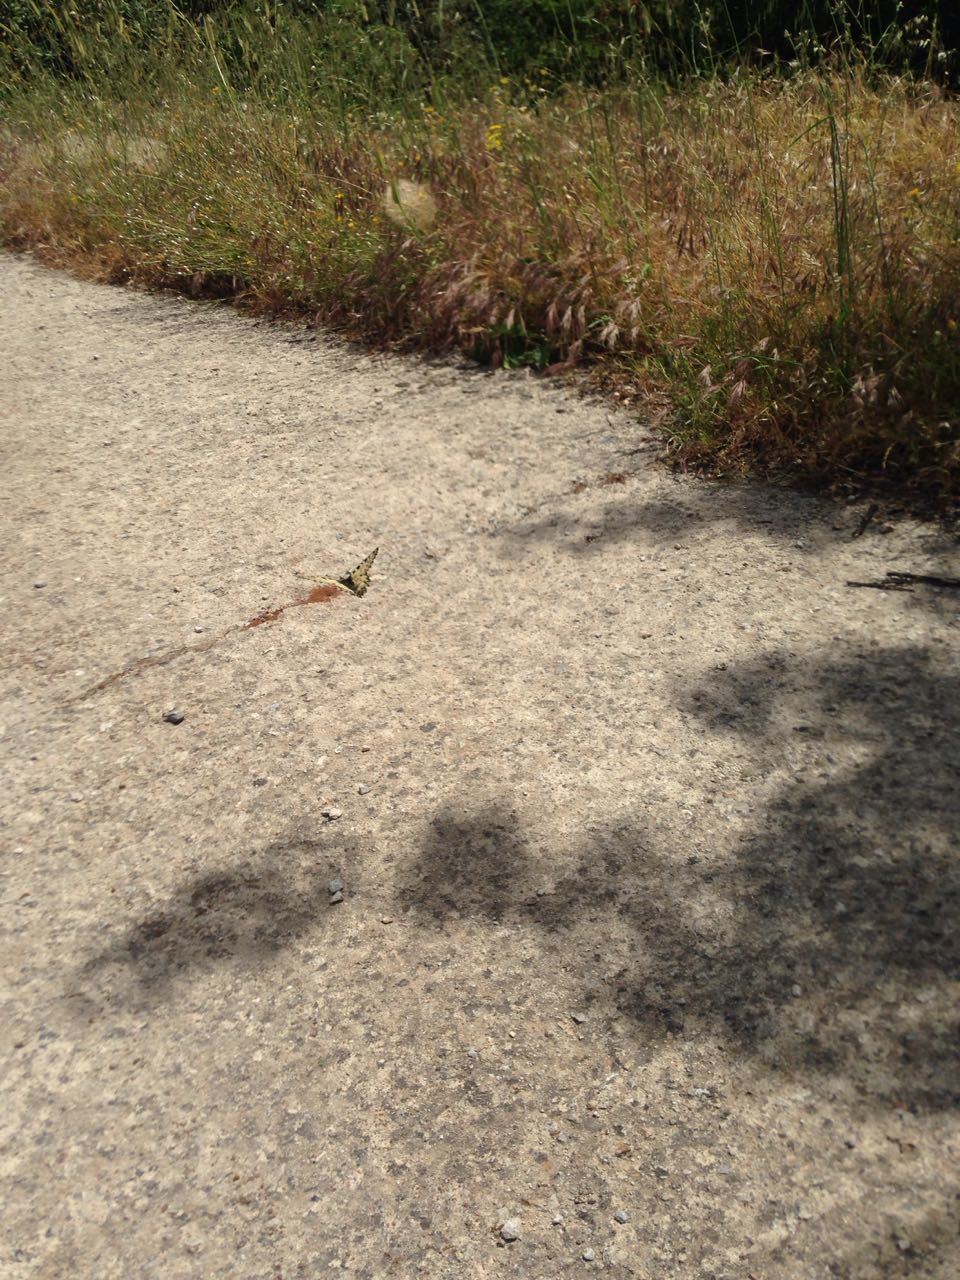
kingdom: Animalia
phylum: Arthropoda
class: Insecta
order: Lepidoptera
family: Papilionidae
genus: Zerynthia
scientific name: Zerynthia cretica
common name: Cretan festoon
